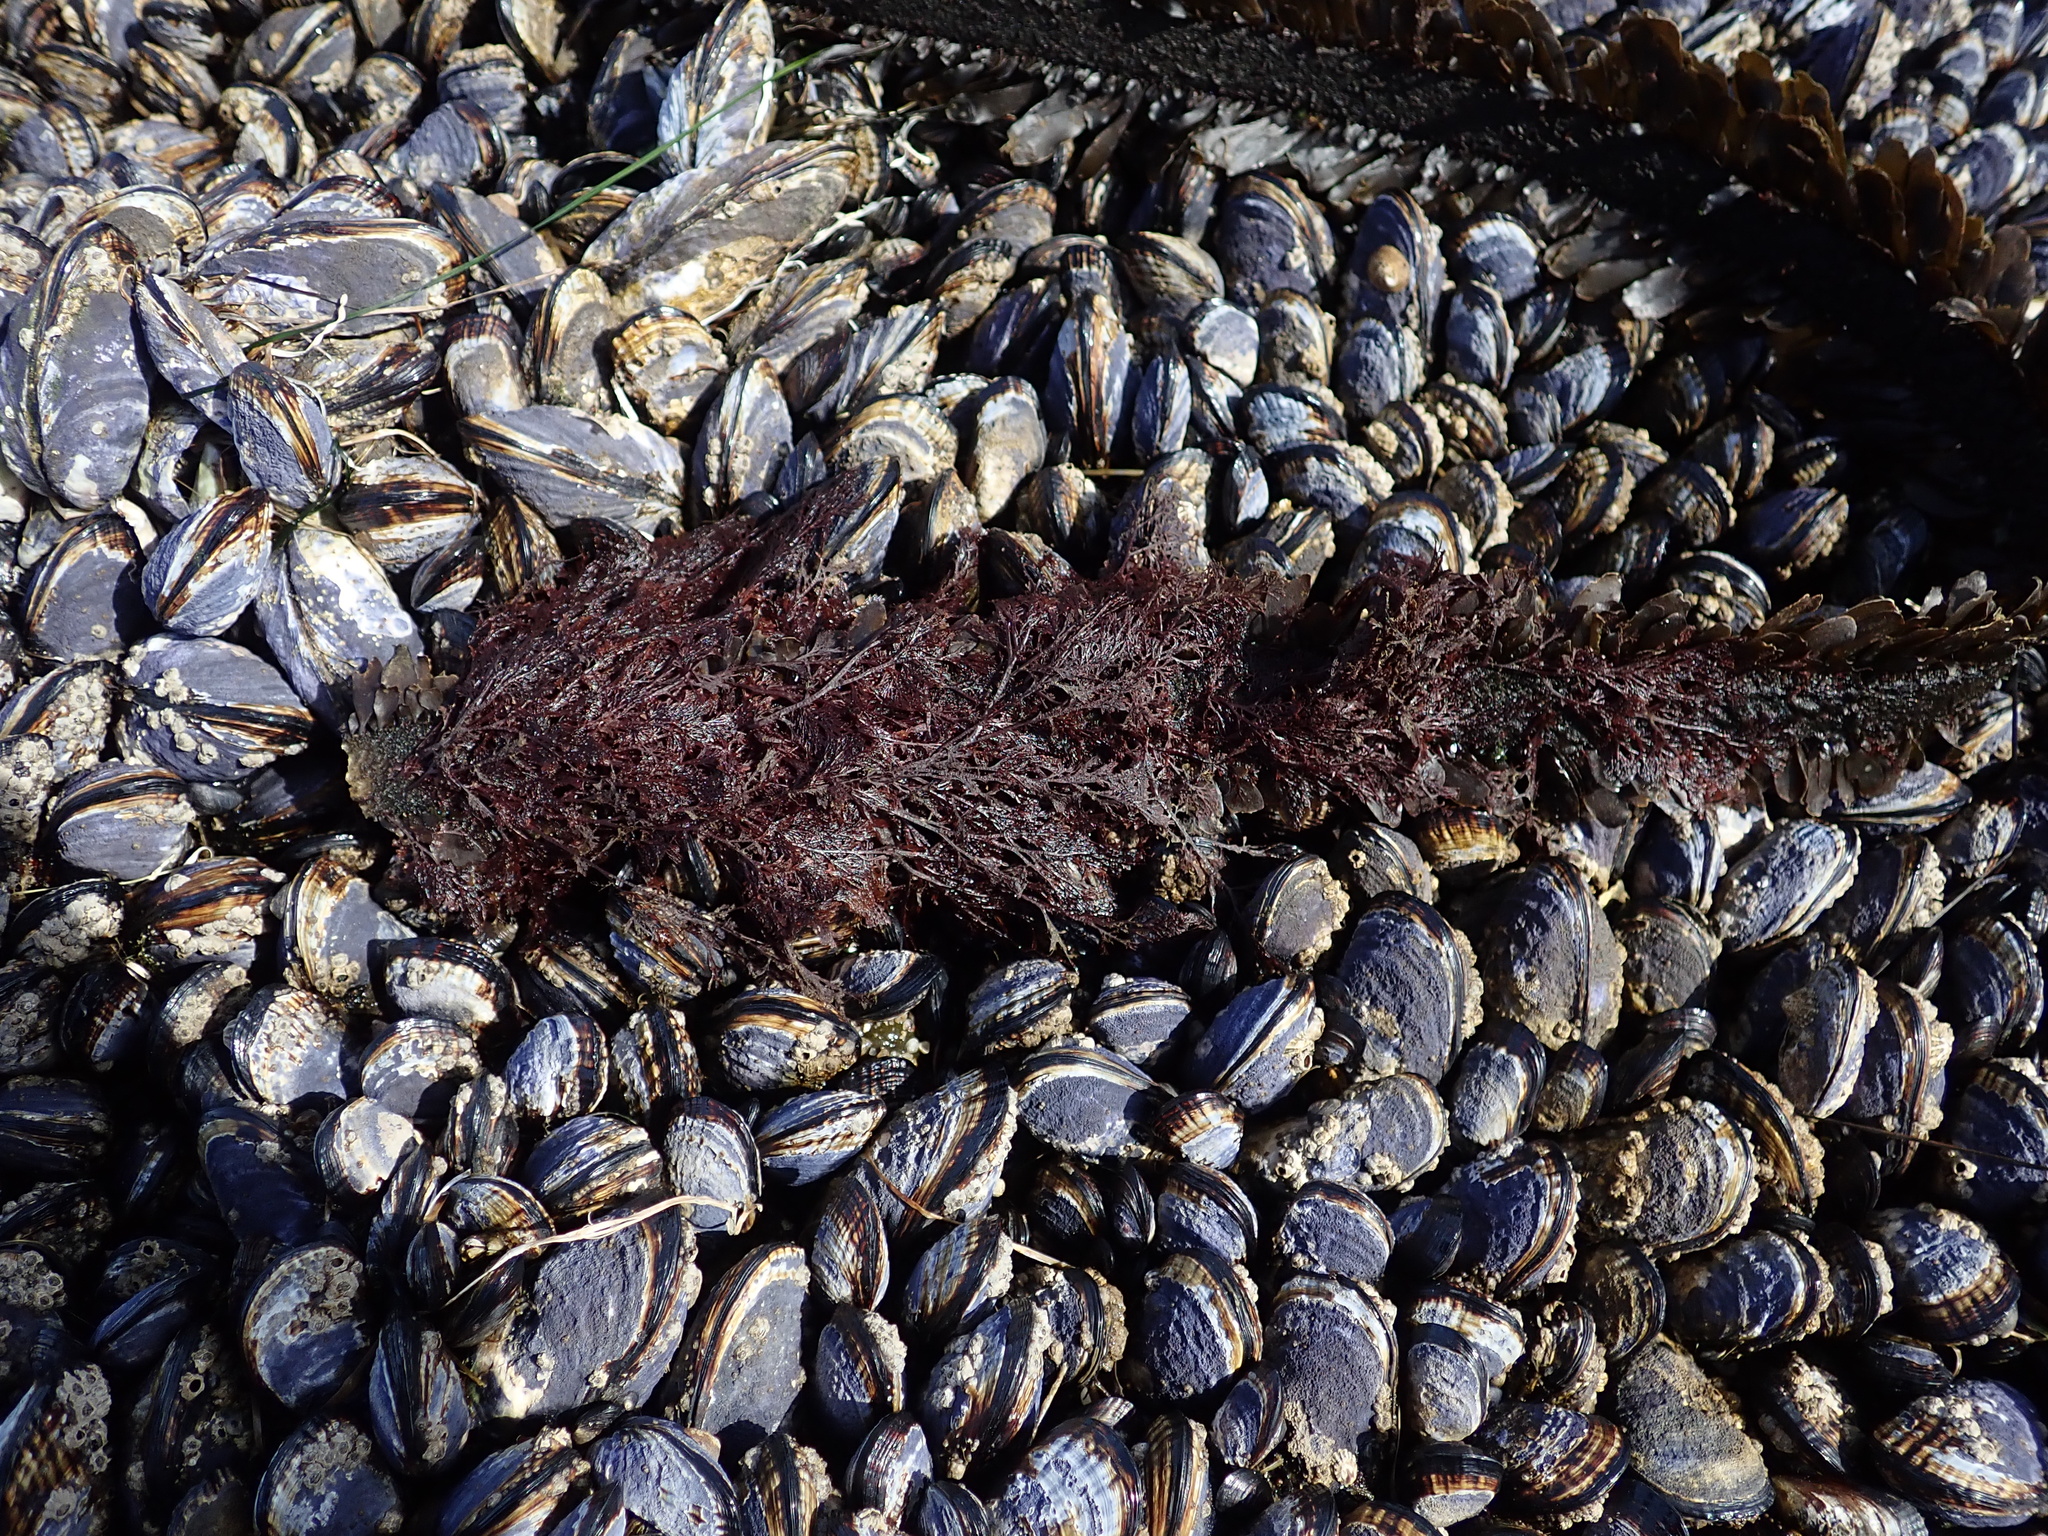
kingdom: Chromista
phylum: Ochrophyta
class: Phaeophyceae
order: Laminariales
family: Lessoniaceae
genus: Egregia
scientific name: Egregia menziesii
